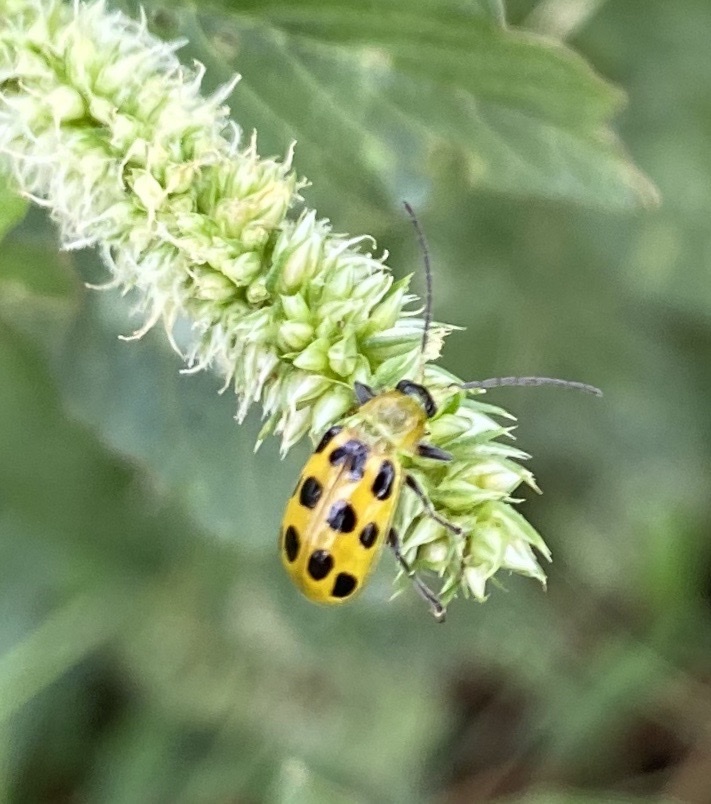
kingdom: Animalia
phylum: Arthropoda
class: Insecta
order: Coleoptera
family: Chrysomelidae
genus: Diabrotica
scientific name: Diabrotica undecimpunctata
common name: Spotted cucumber beetle
